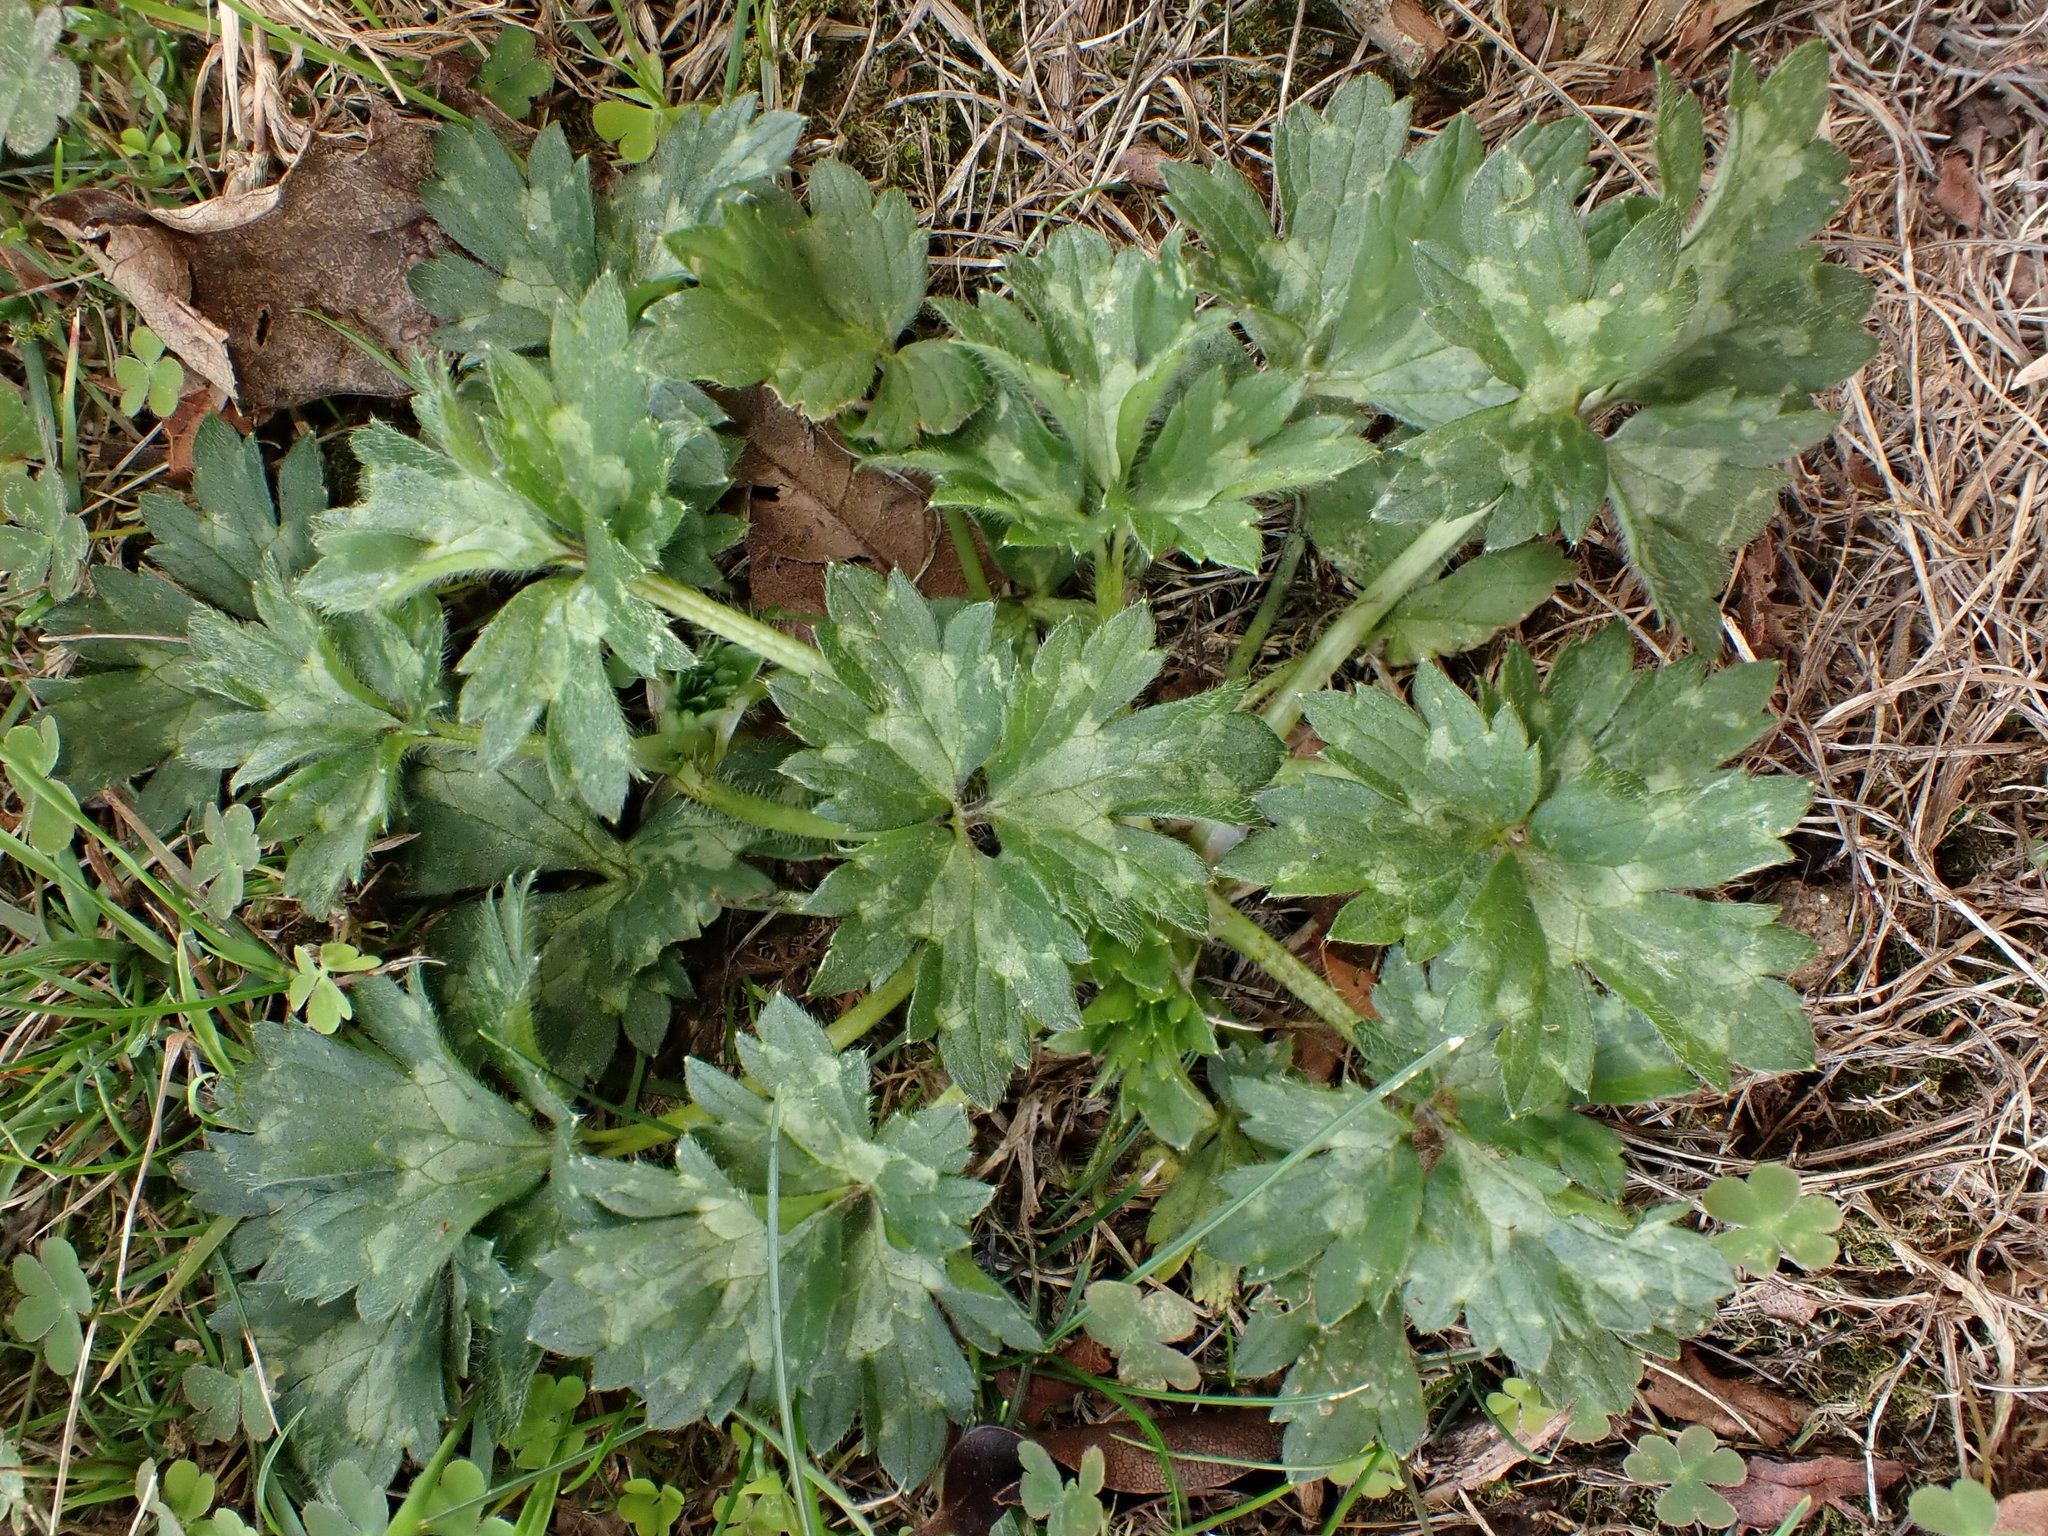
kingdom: Plantae
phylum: Tracheophyta
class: Magnoliopsida
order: Ranunculales
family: Ranunculaceae
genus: Ranunculus
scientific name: Ranunculus repens
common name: Creeping buttercup
